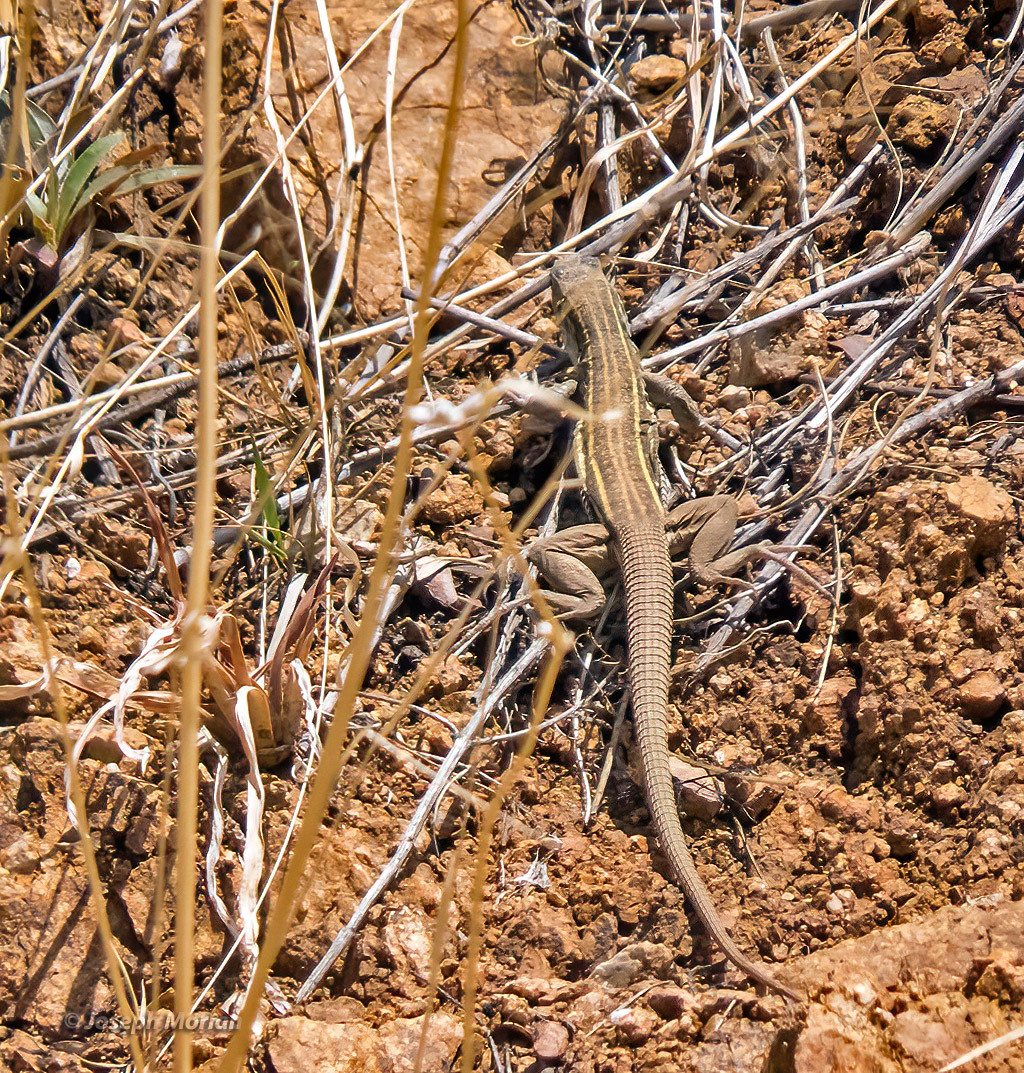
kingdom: Animalia
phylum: Chordata
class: Squamata
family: Teiidae
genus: Aspidoscelis
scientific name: Aspidoscelis sonorae
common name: Sonoran spotted whiptail
